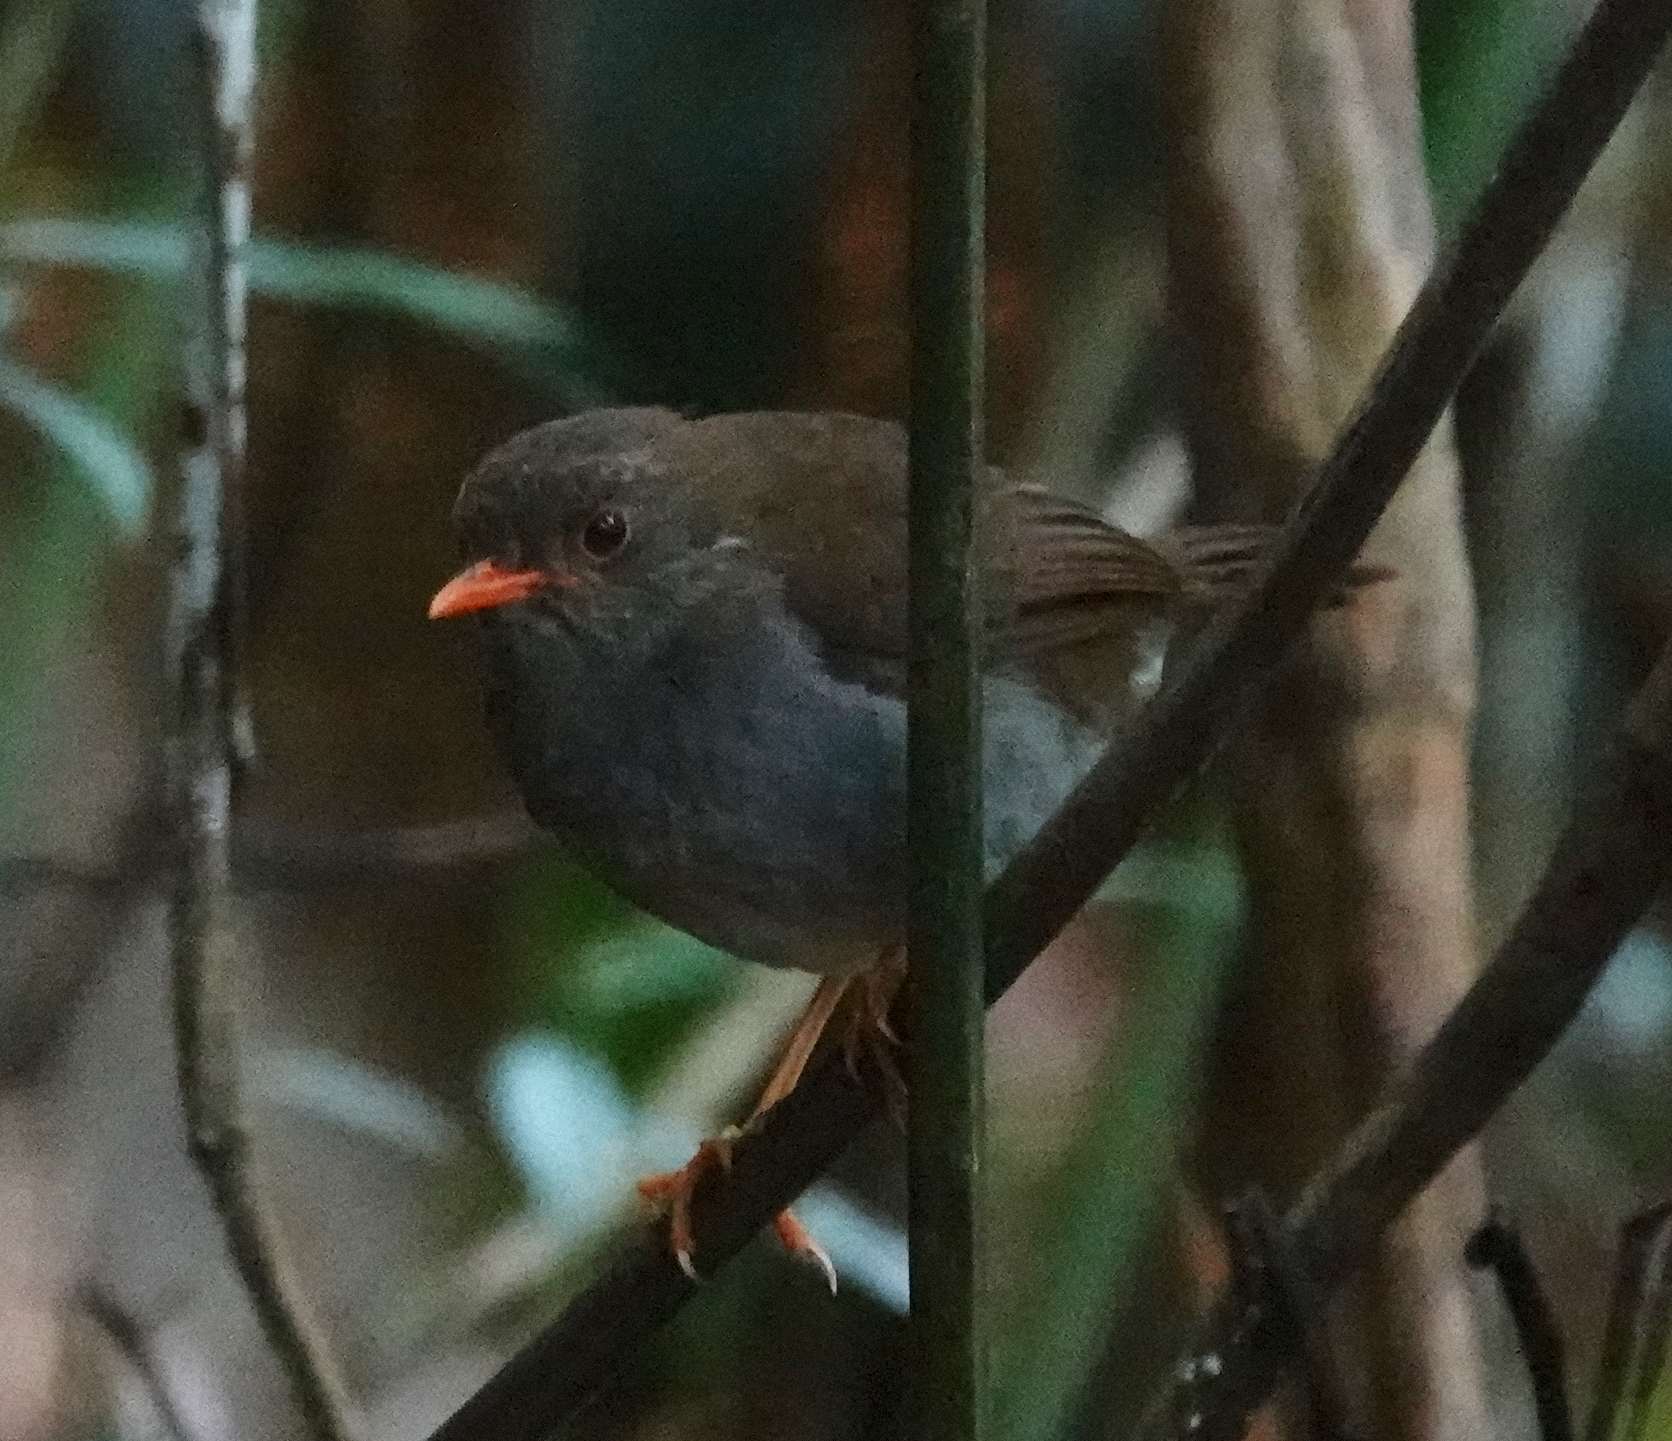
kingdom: Animalia
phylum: Chordata
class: Aves
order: Passeriformes
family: Turdidae
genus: Catharus
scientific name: Catharus aurantiirostris
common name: Orange-billed nightingale-thrush
